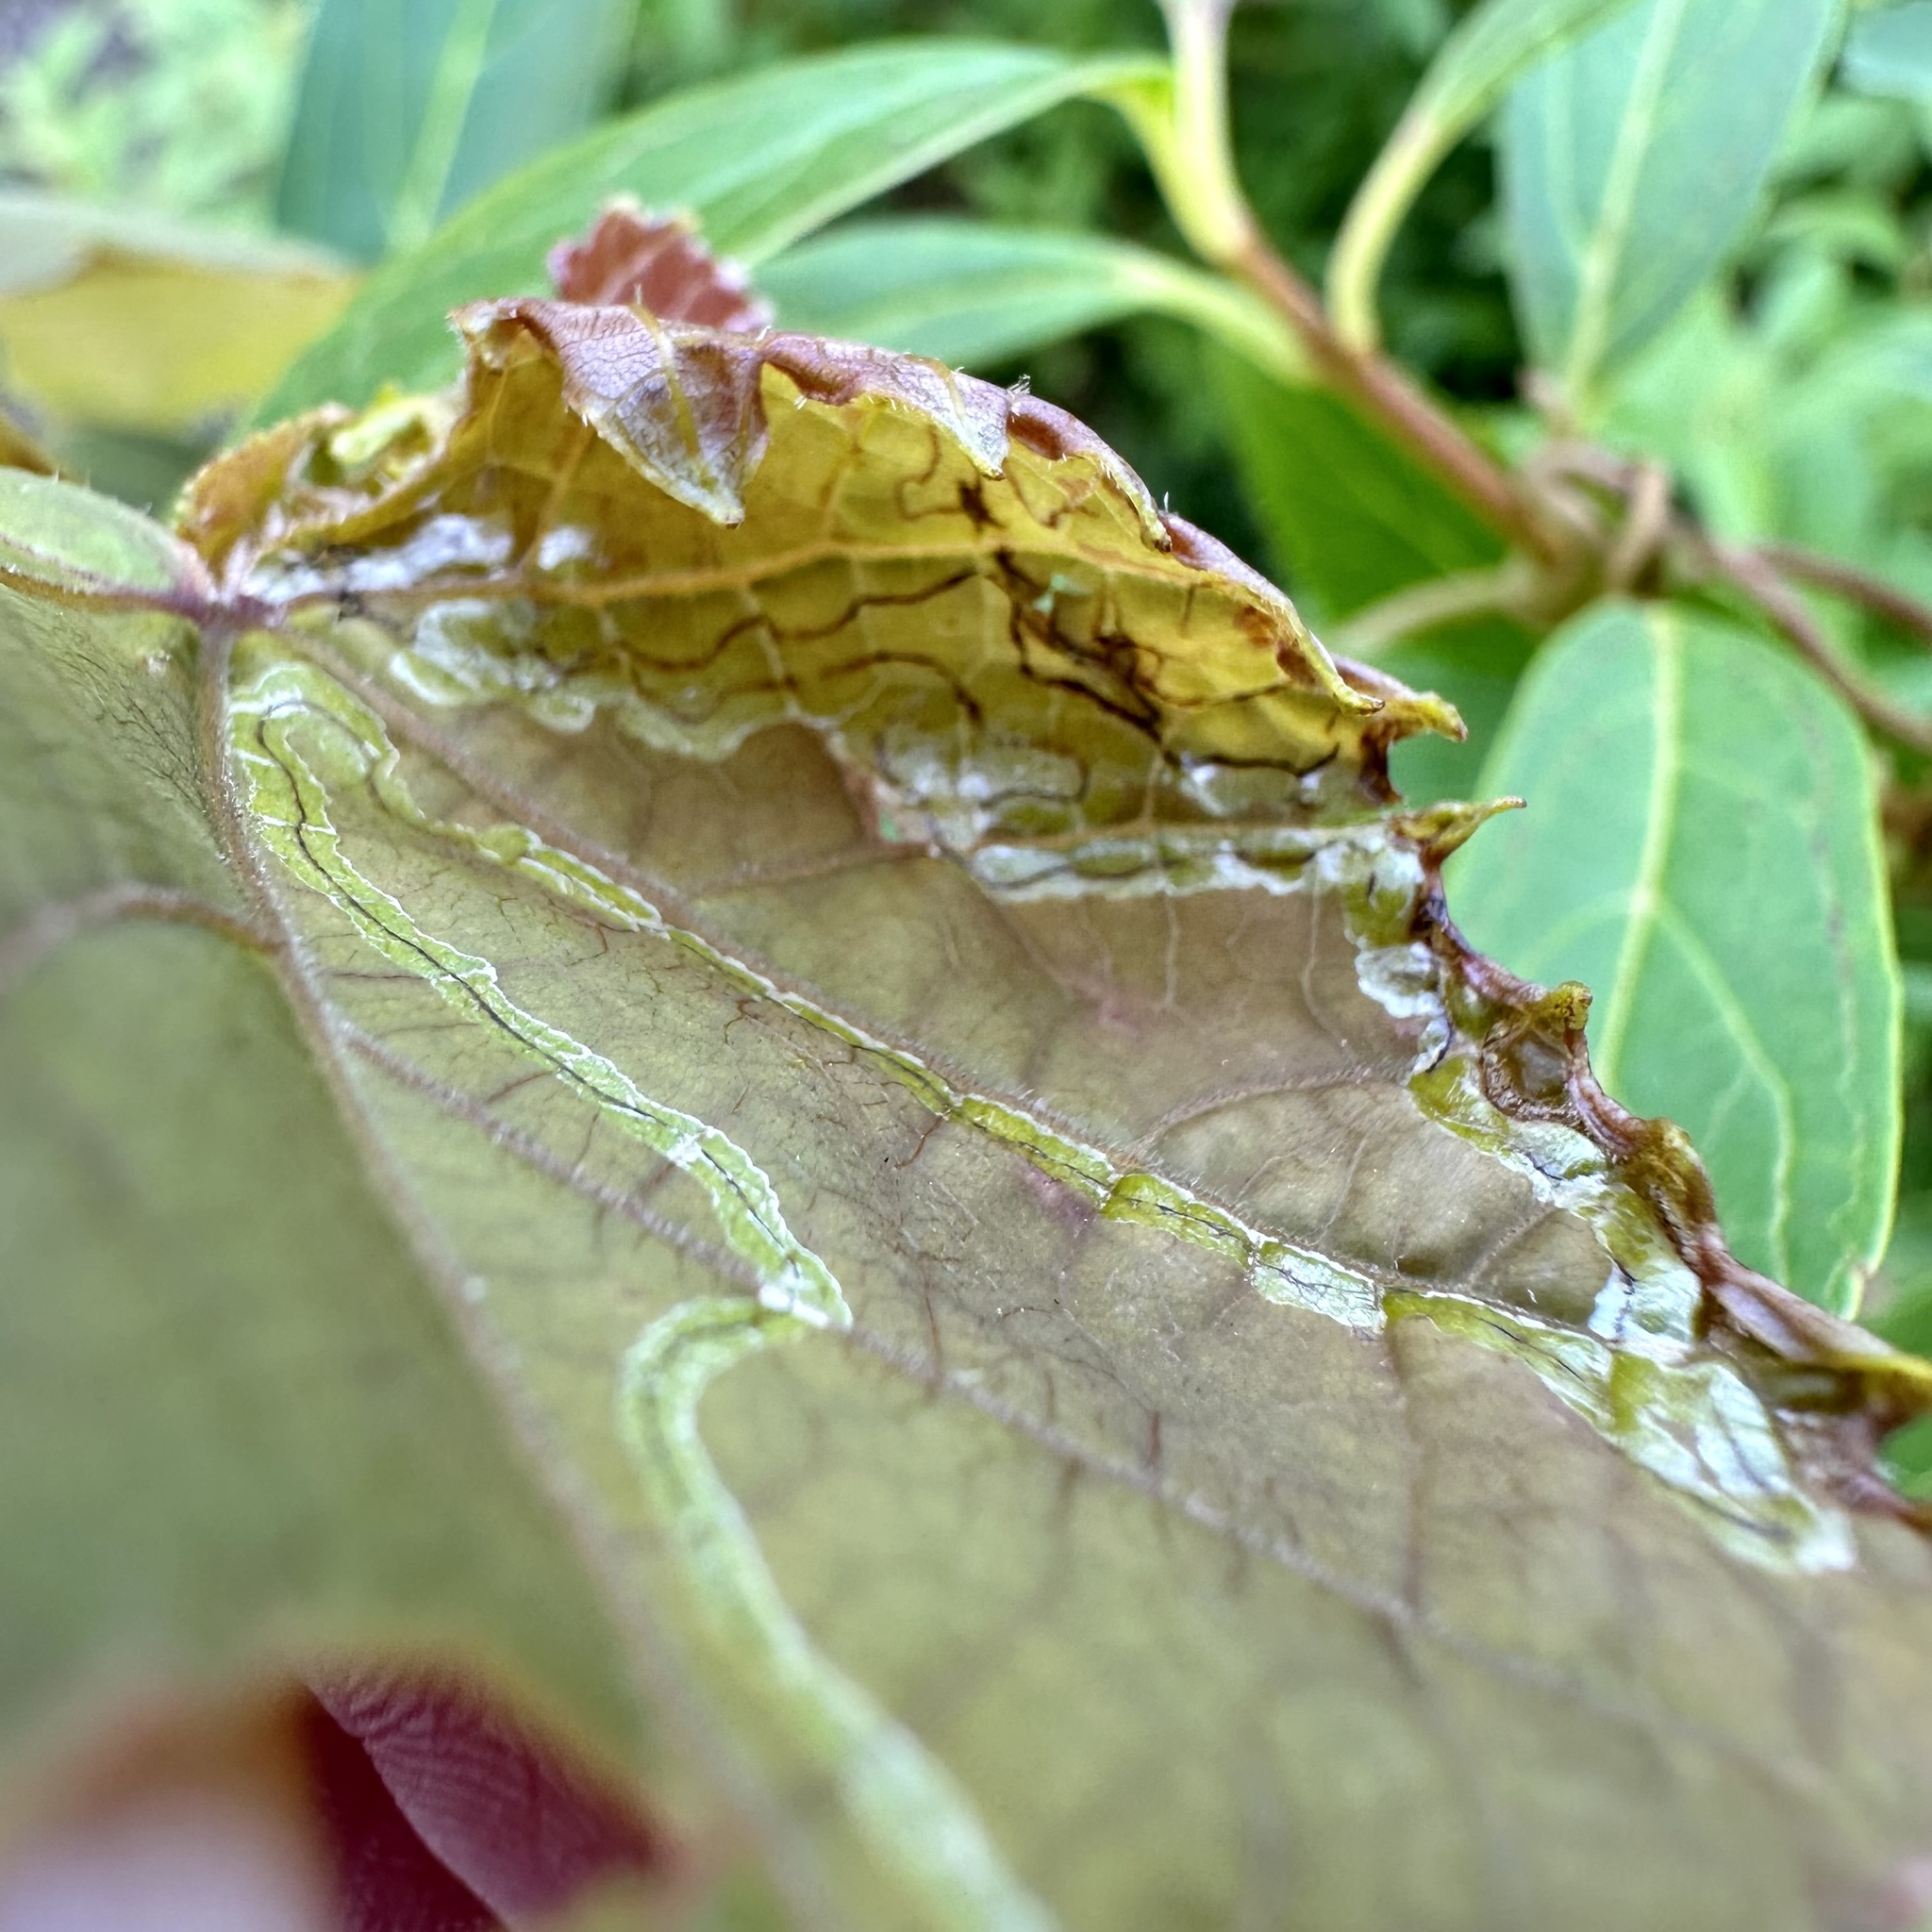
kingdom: Animalia
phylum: Arthropoda
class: Insecta
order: Lepidoptera
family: Gracillariidae
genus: Phyllocnistis
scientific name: Phyllocnistis vitegenella
